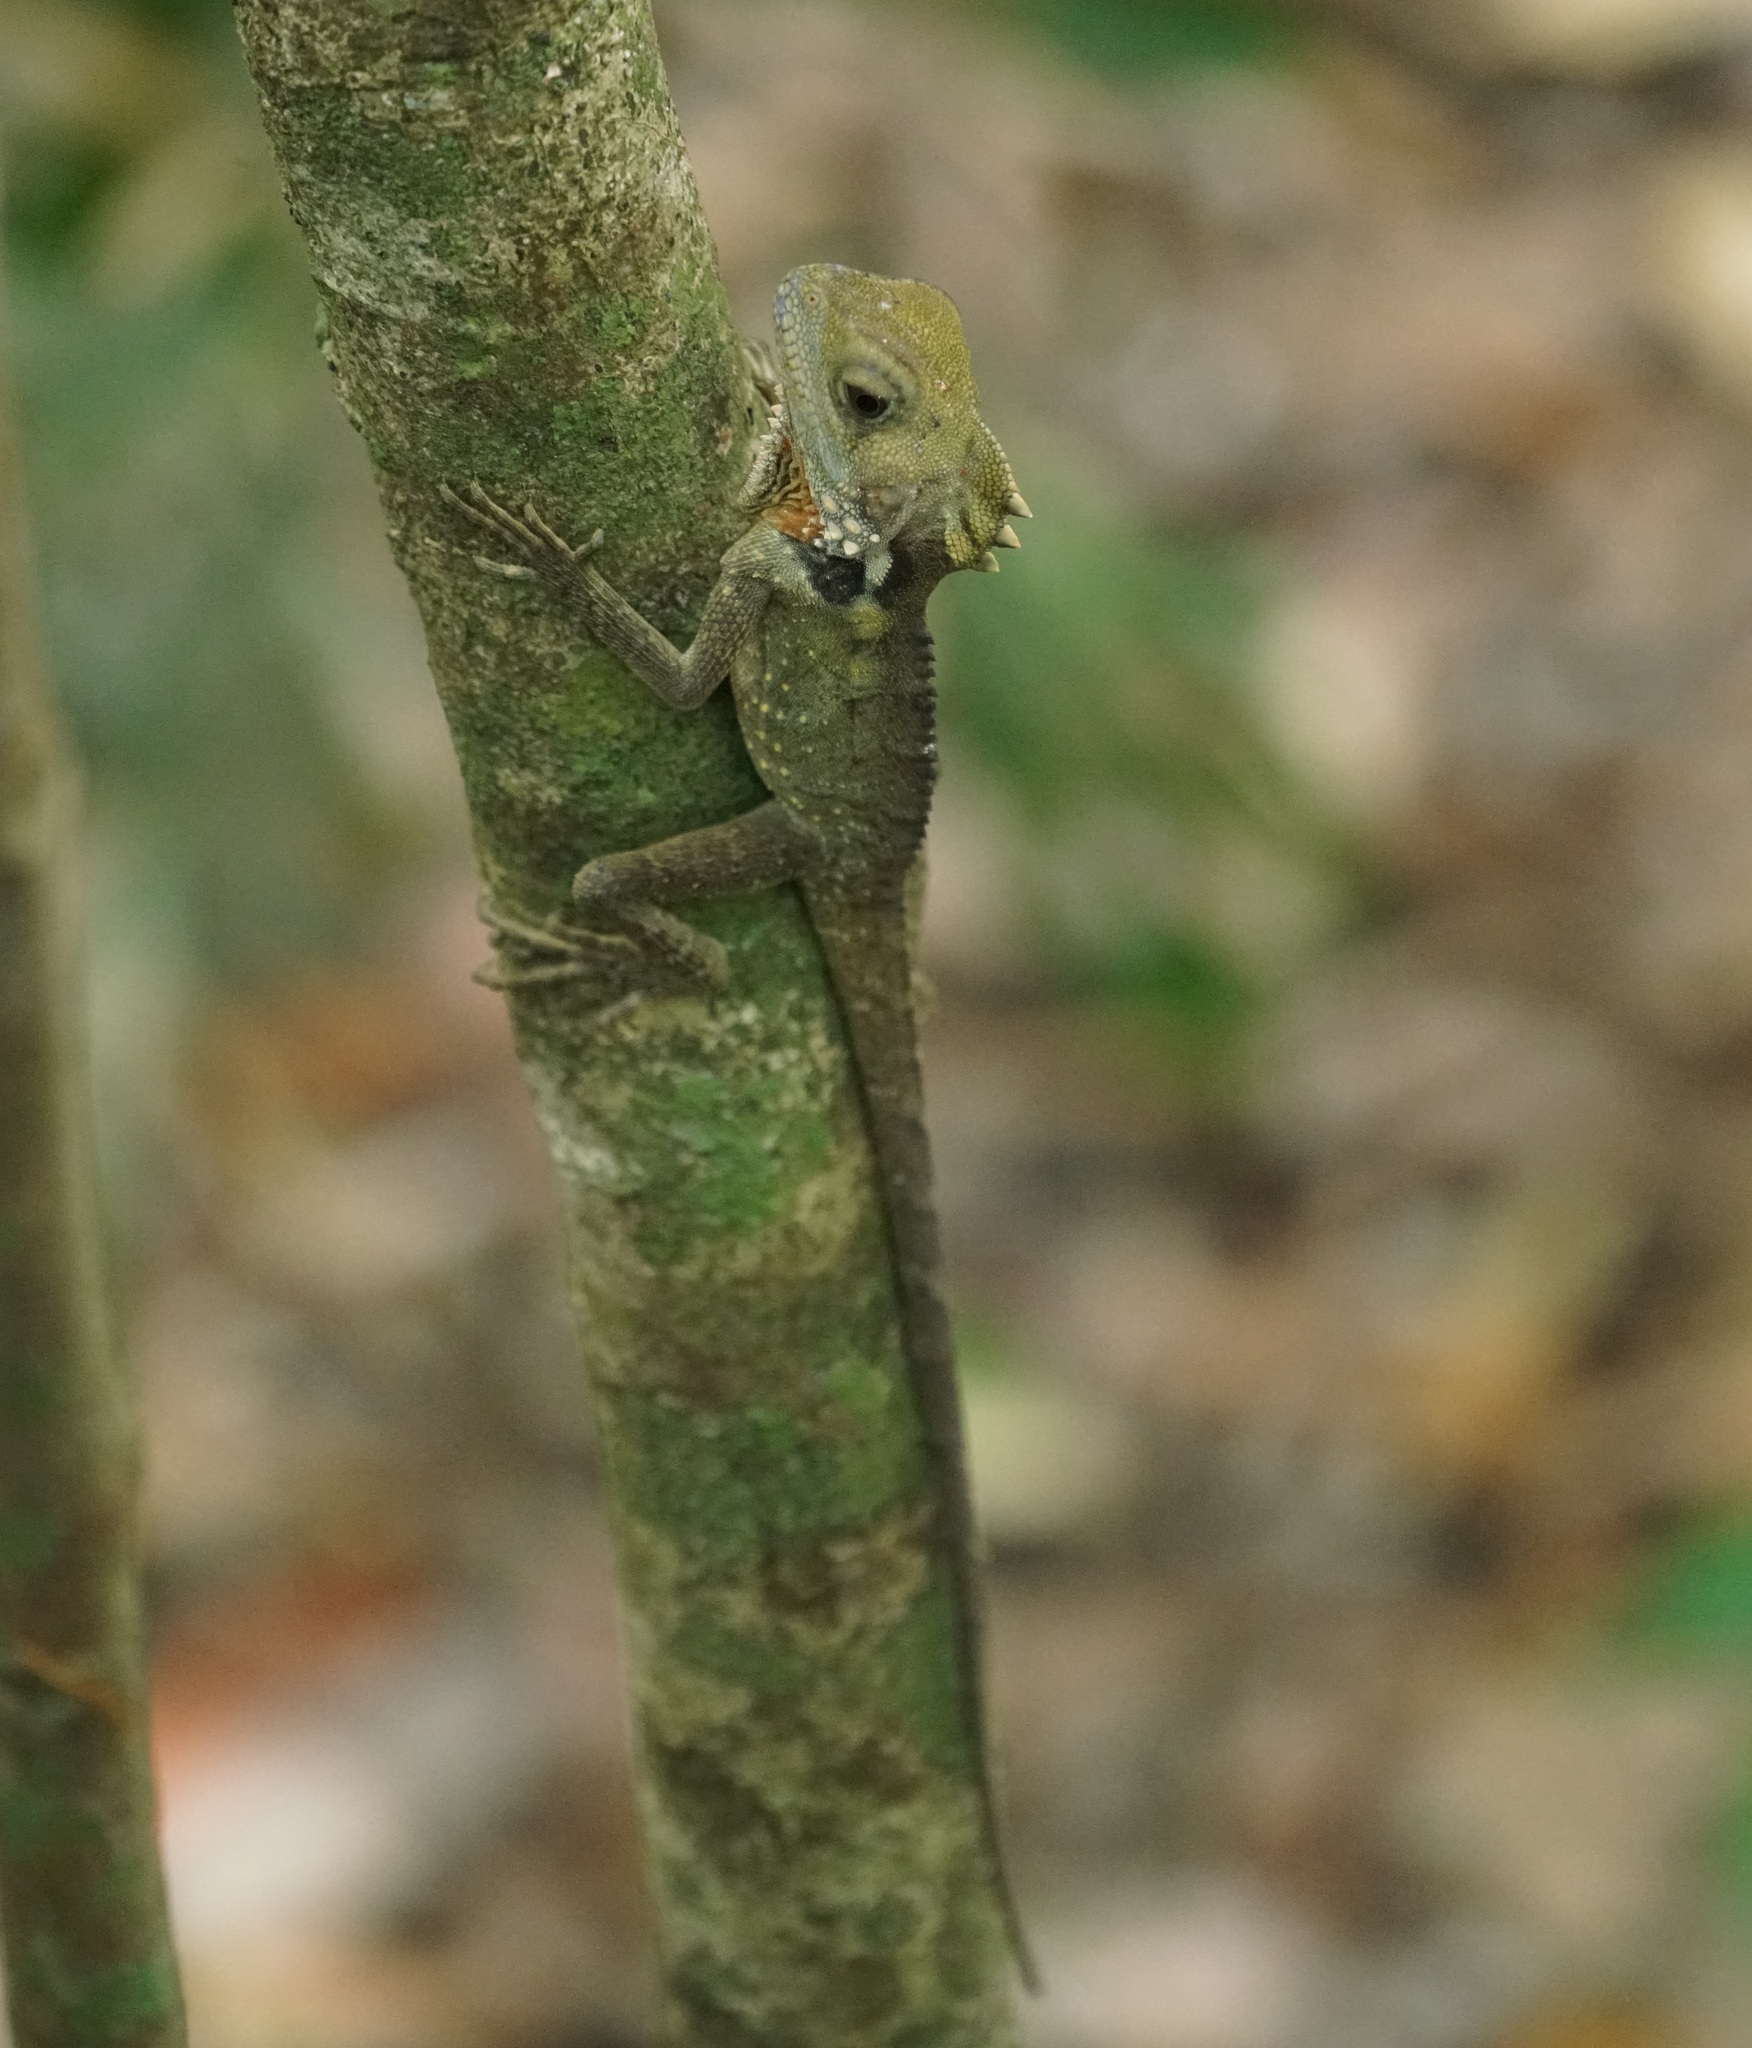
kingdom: Animalia
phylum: Chordata
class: Squamata
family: Agamidae
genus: Lophosaurus
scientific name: Lophosaurus boydii
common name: Boyd's forest dragon
